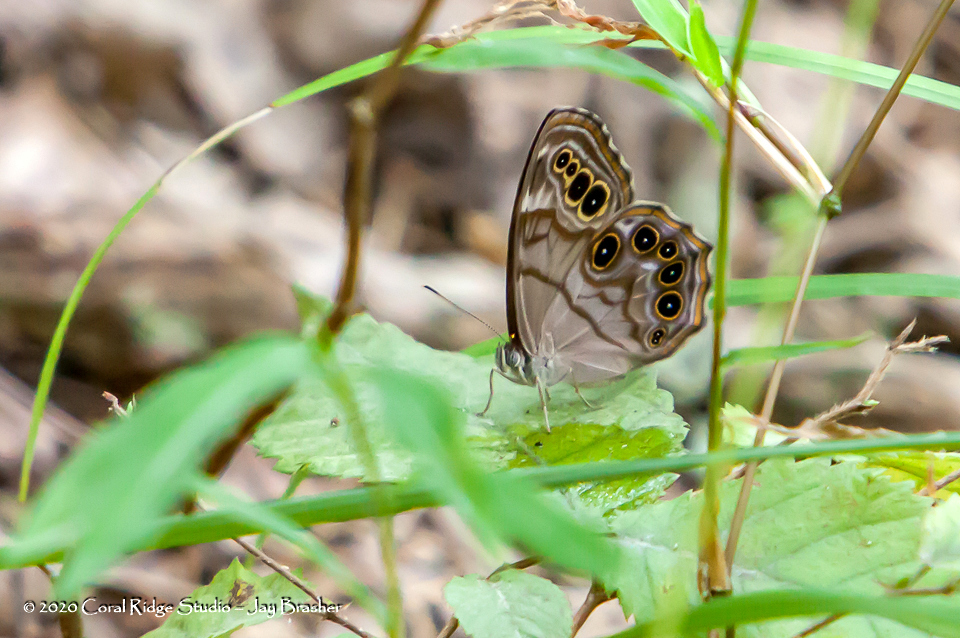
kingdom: Animalia
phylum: Arthropoda
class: Insecta
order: Lepidoptera
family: Nymphalidae
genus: Lethe
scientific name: Lethe anthedon
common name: Northern pearly-eye
